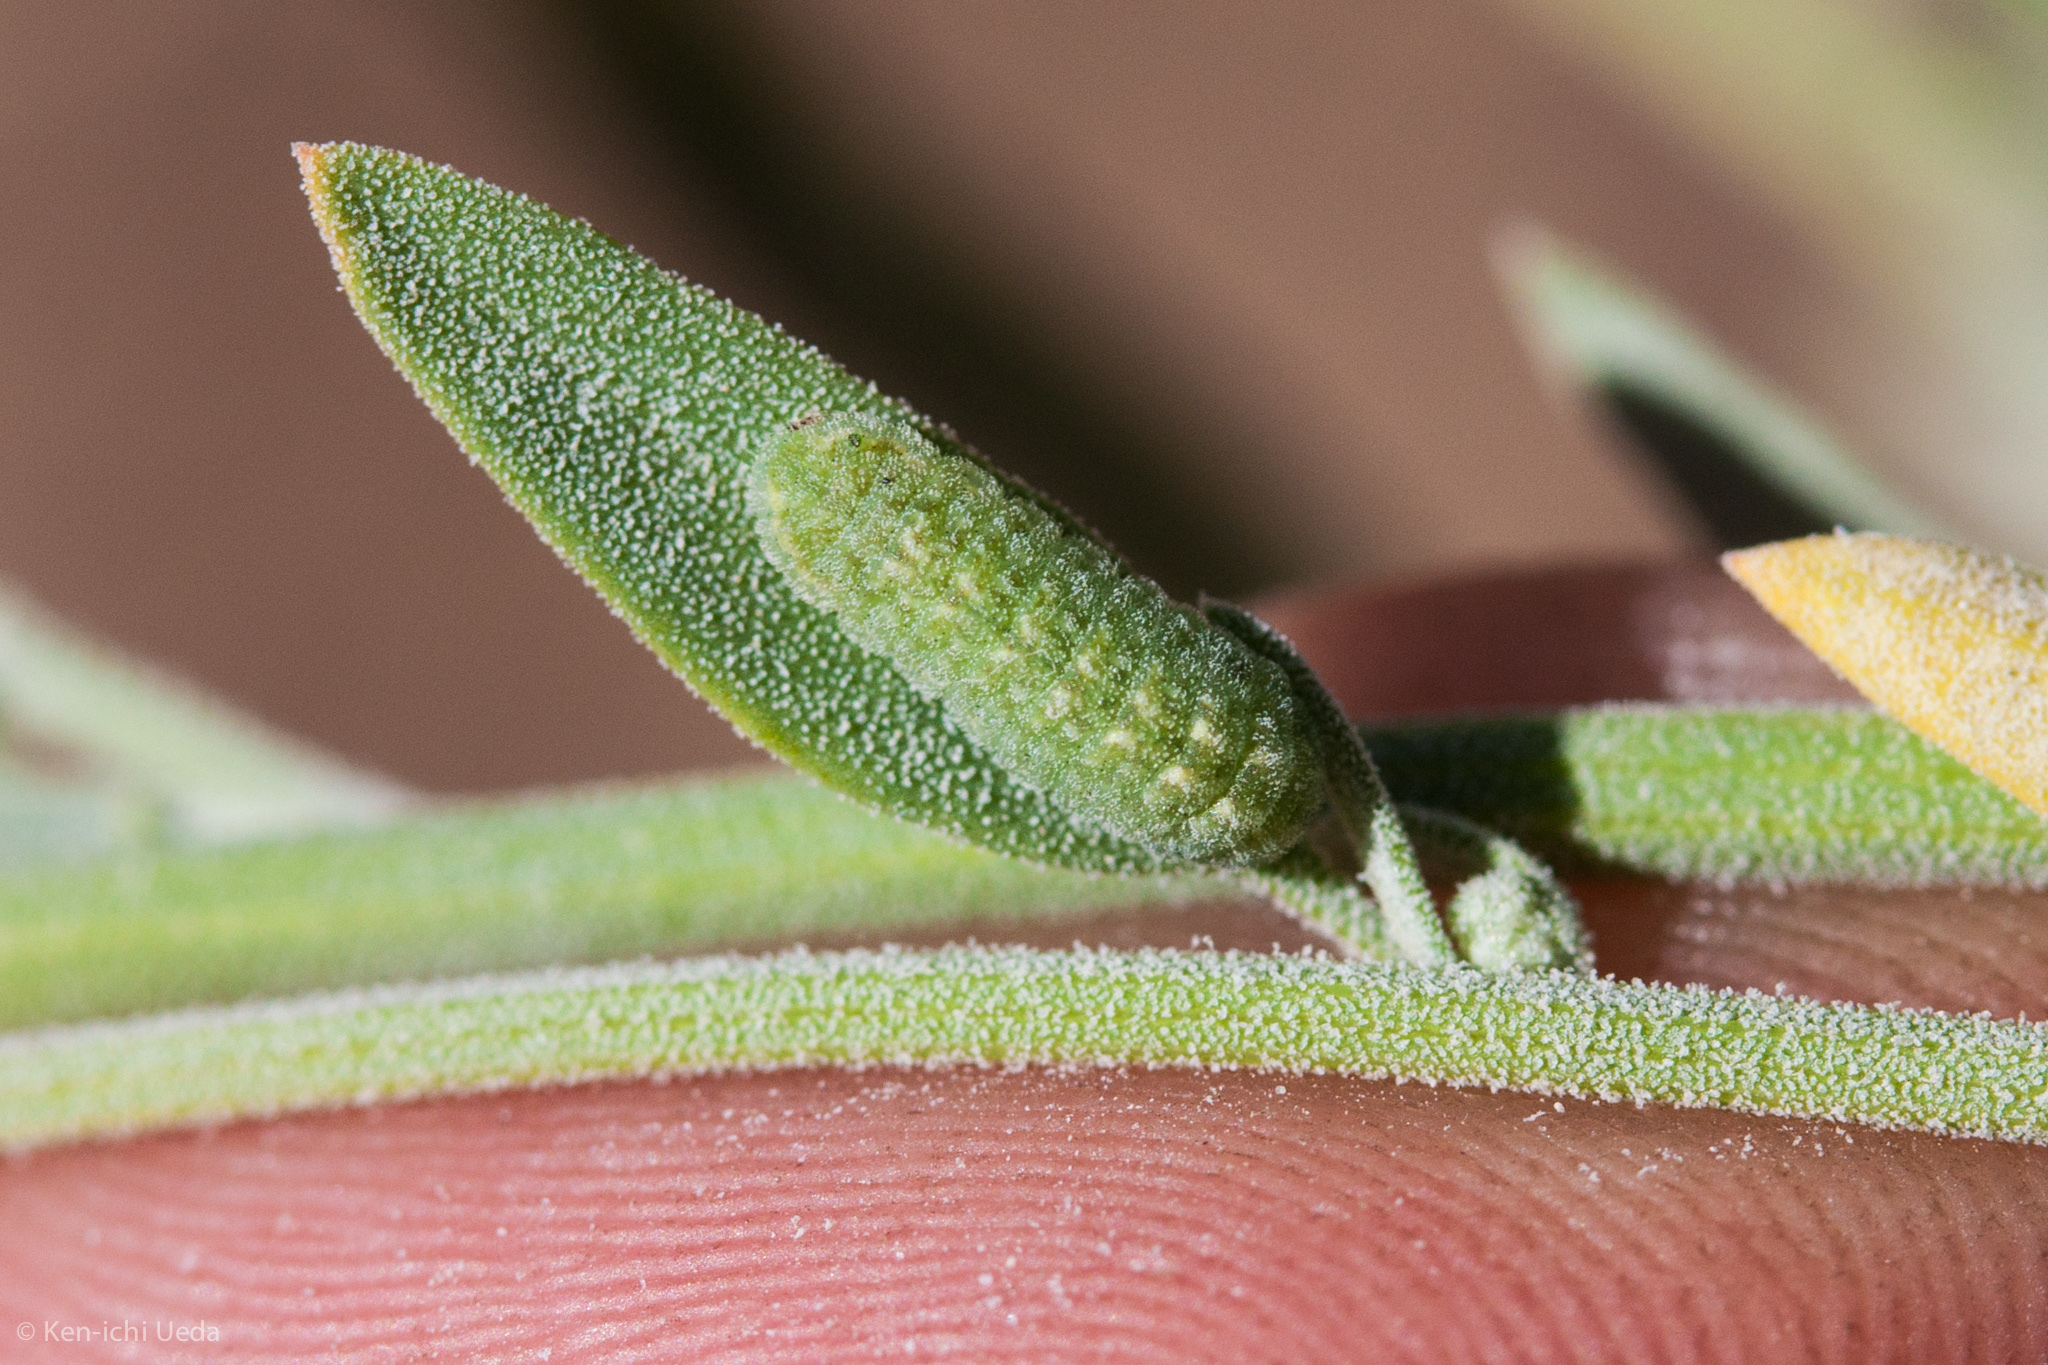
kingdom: Animalia
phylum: Arthropoda
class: Insecta
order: Lepidoptera
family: Lycaenidae
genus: Brephidium
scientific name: Brephidium exilis
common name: Pygmy blue
